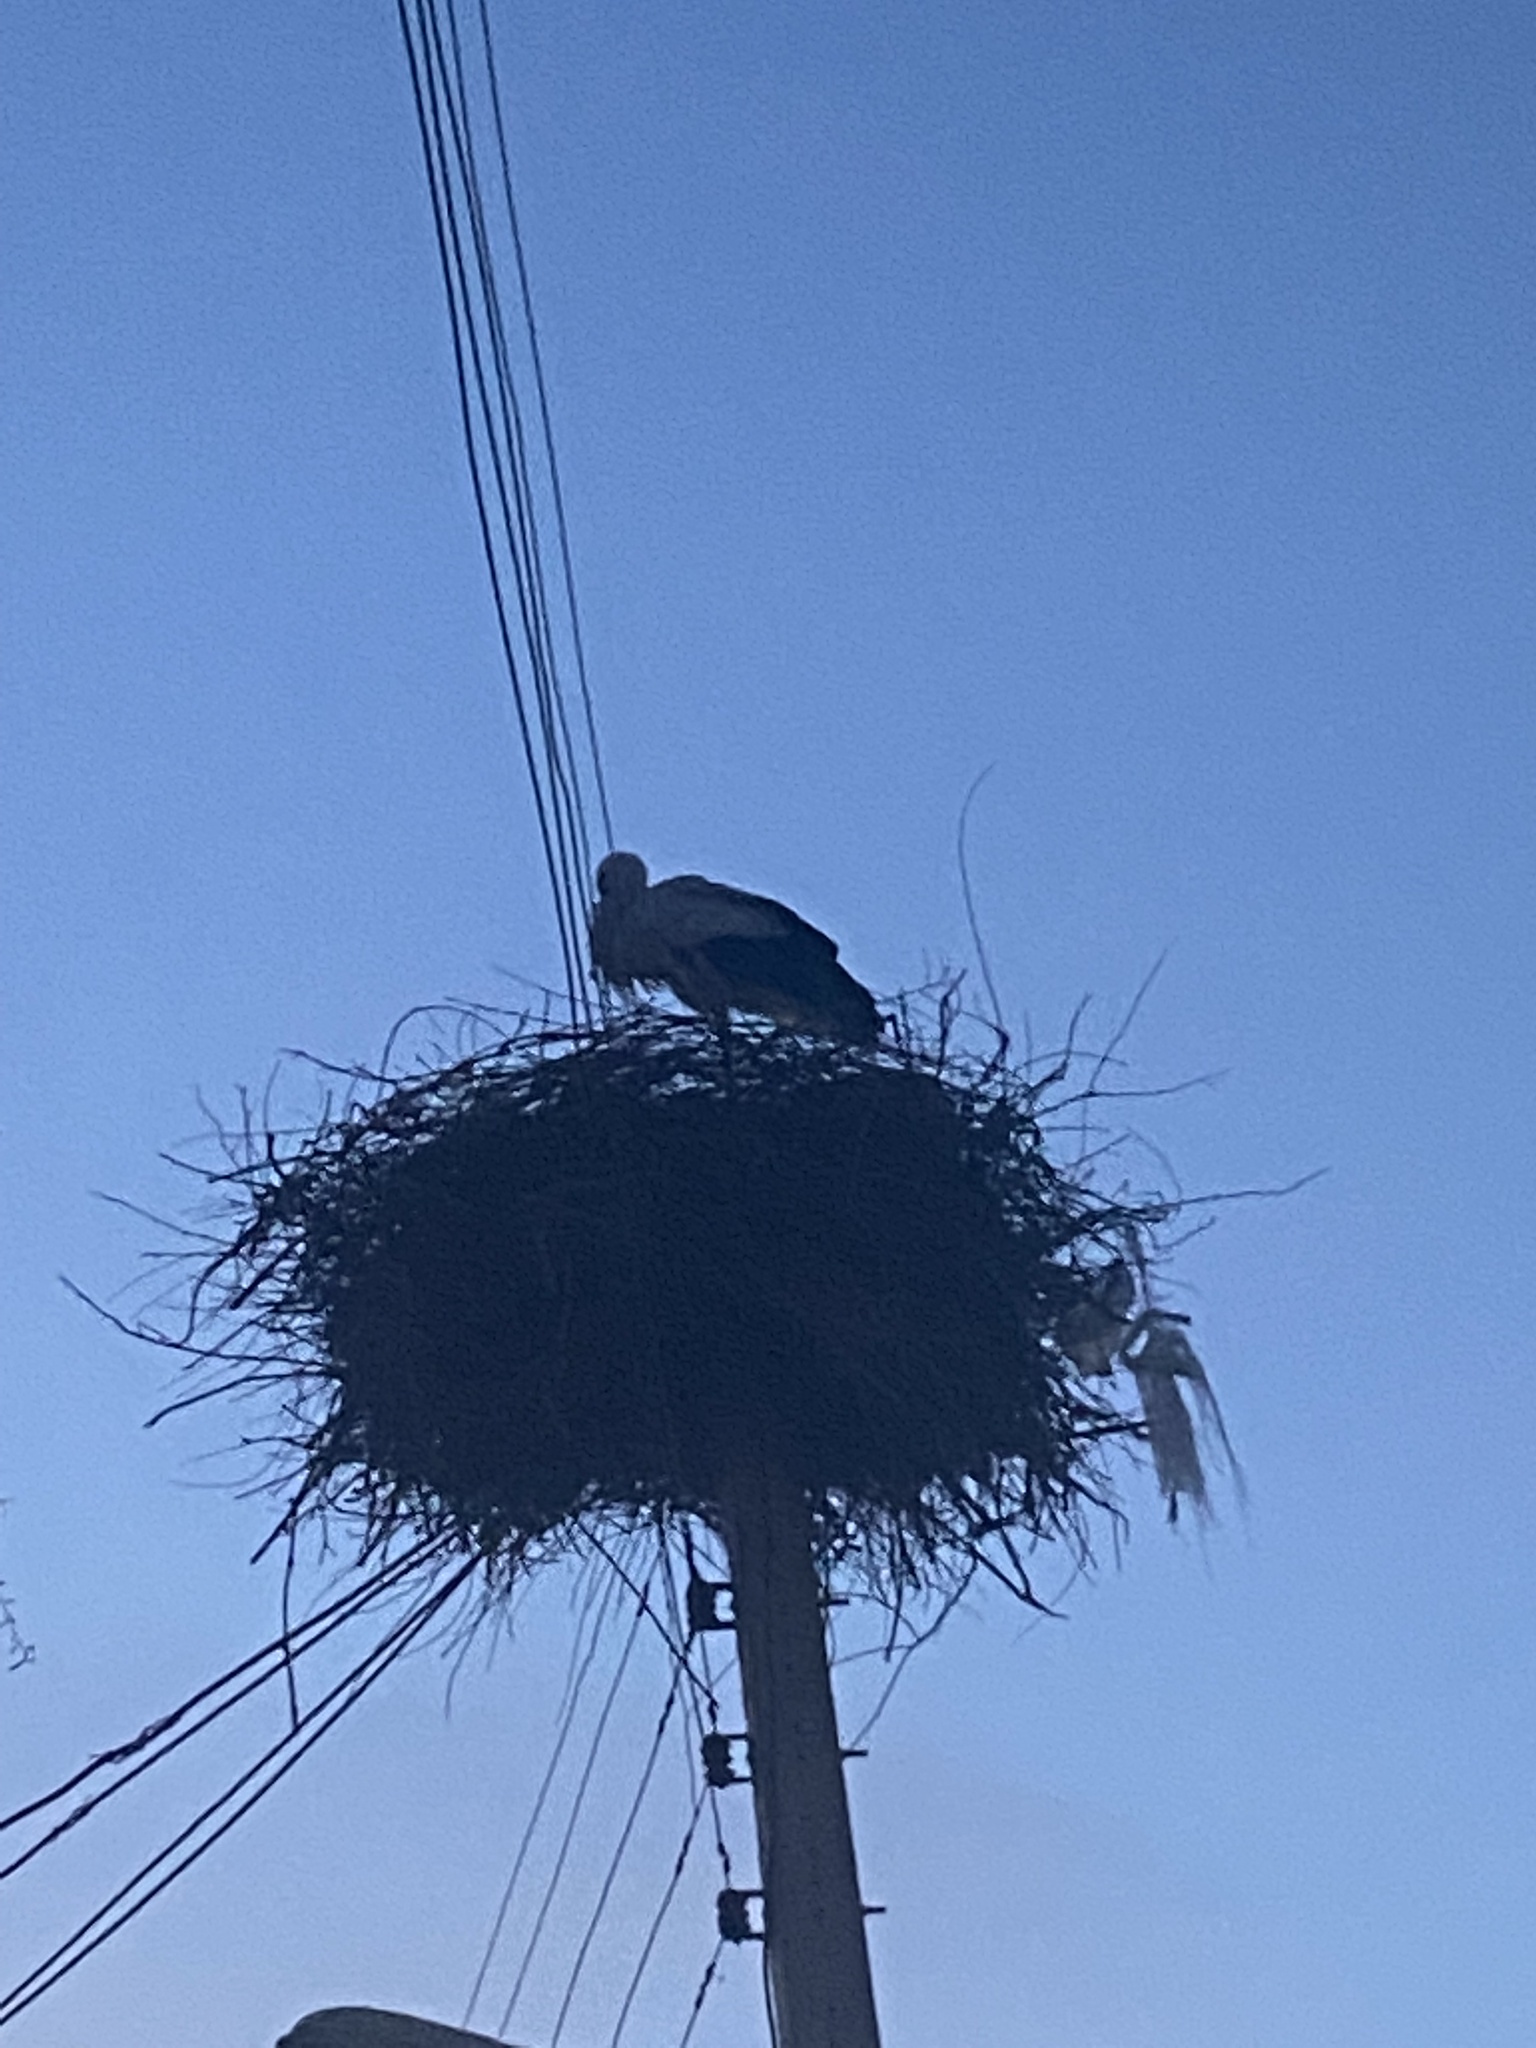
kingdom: Animalia
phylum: Chordata
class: Aves
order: Ciconiiformes
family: Ciconiidae
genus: Ciconia
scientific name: Ciconia ciconia
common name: White stork
